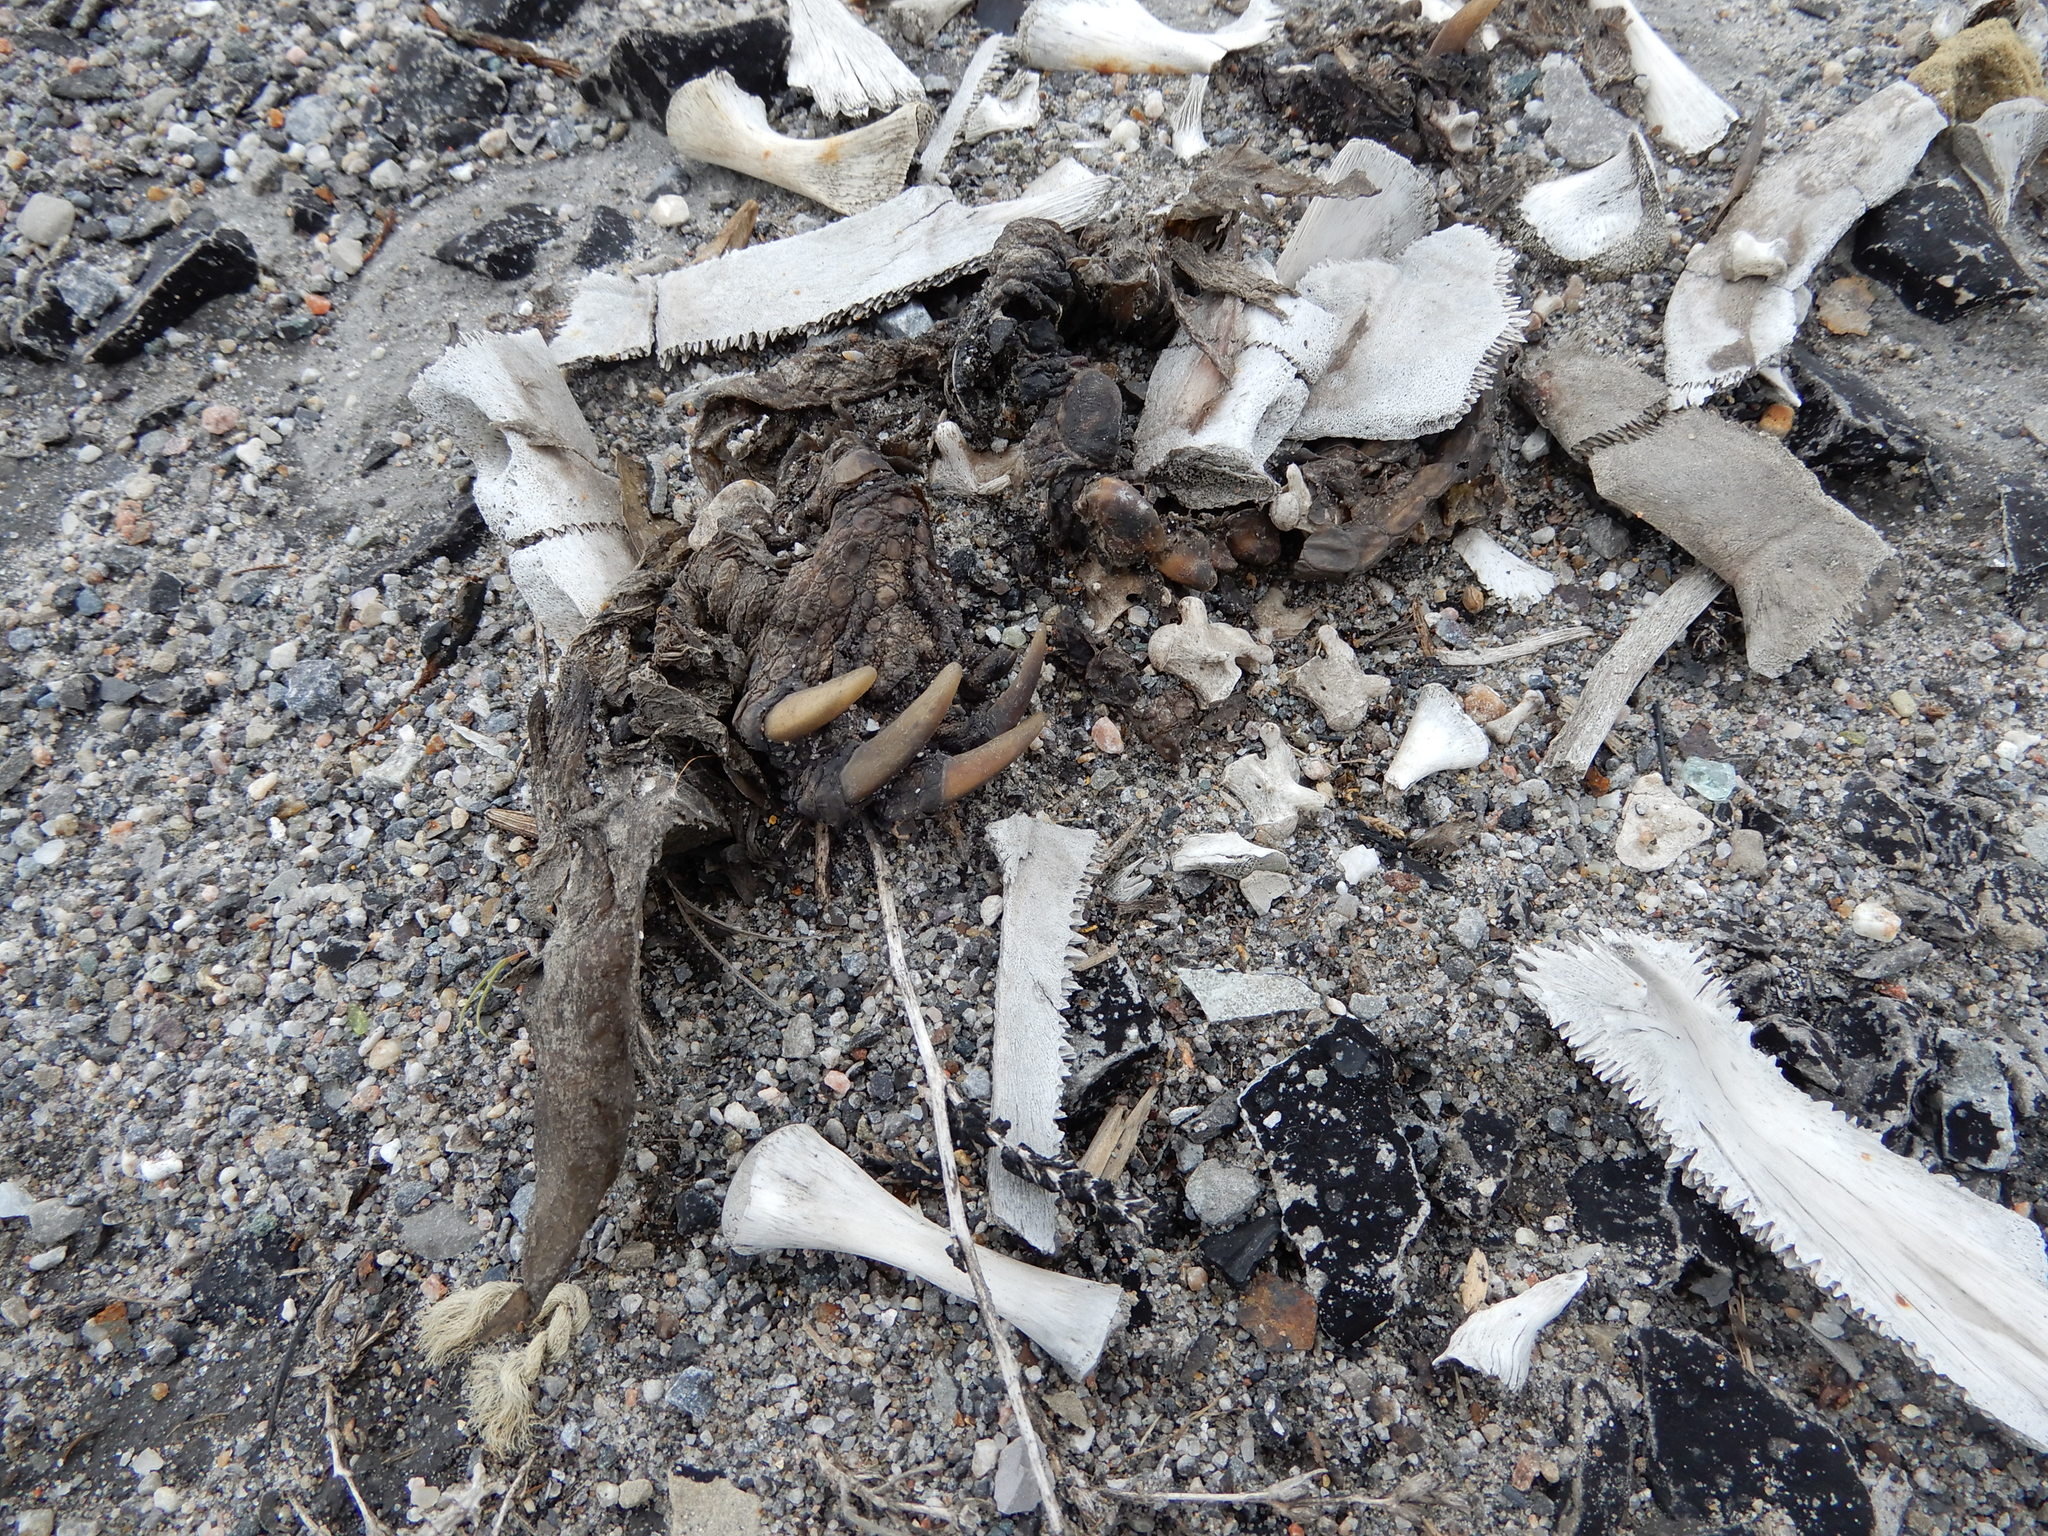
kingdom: Animalia
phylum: Chordata
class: Testudines
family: Chelydridae
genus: Chelydra
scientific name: Chelydra serpentina
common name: Common snapping turtle
